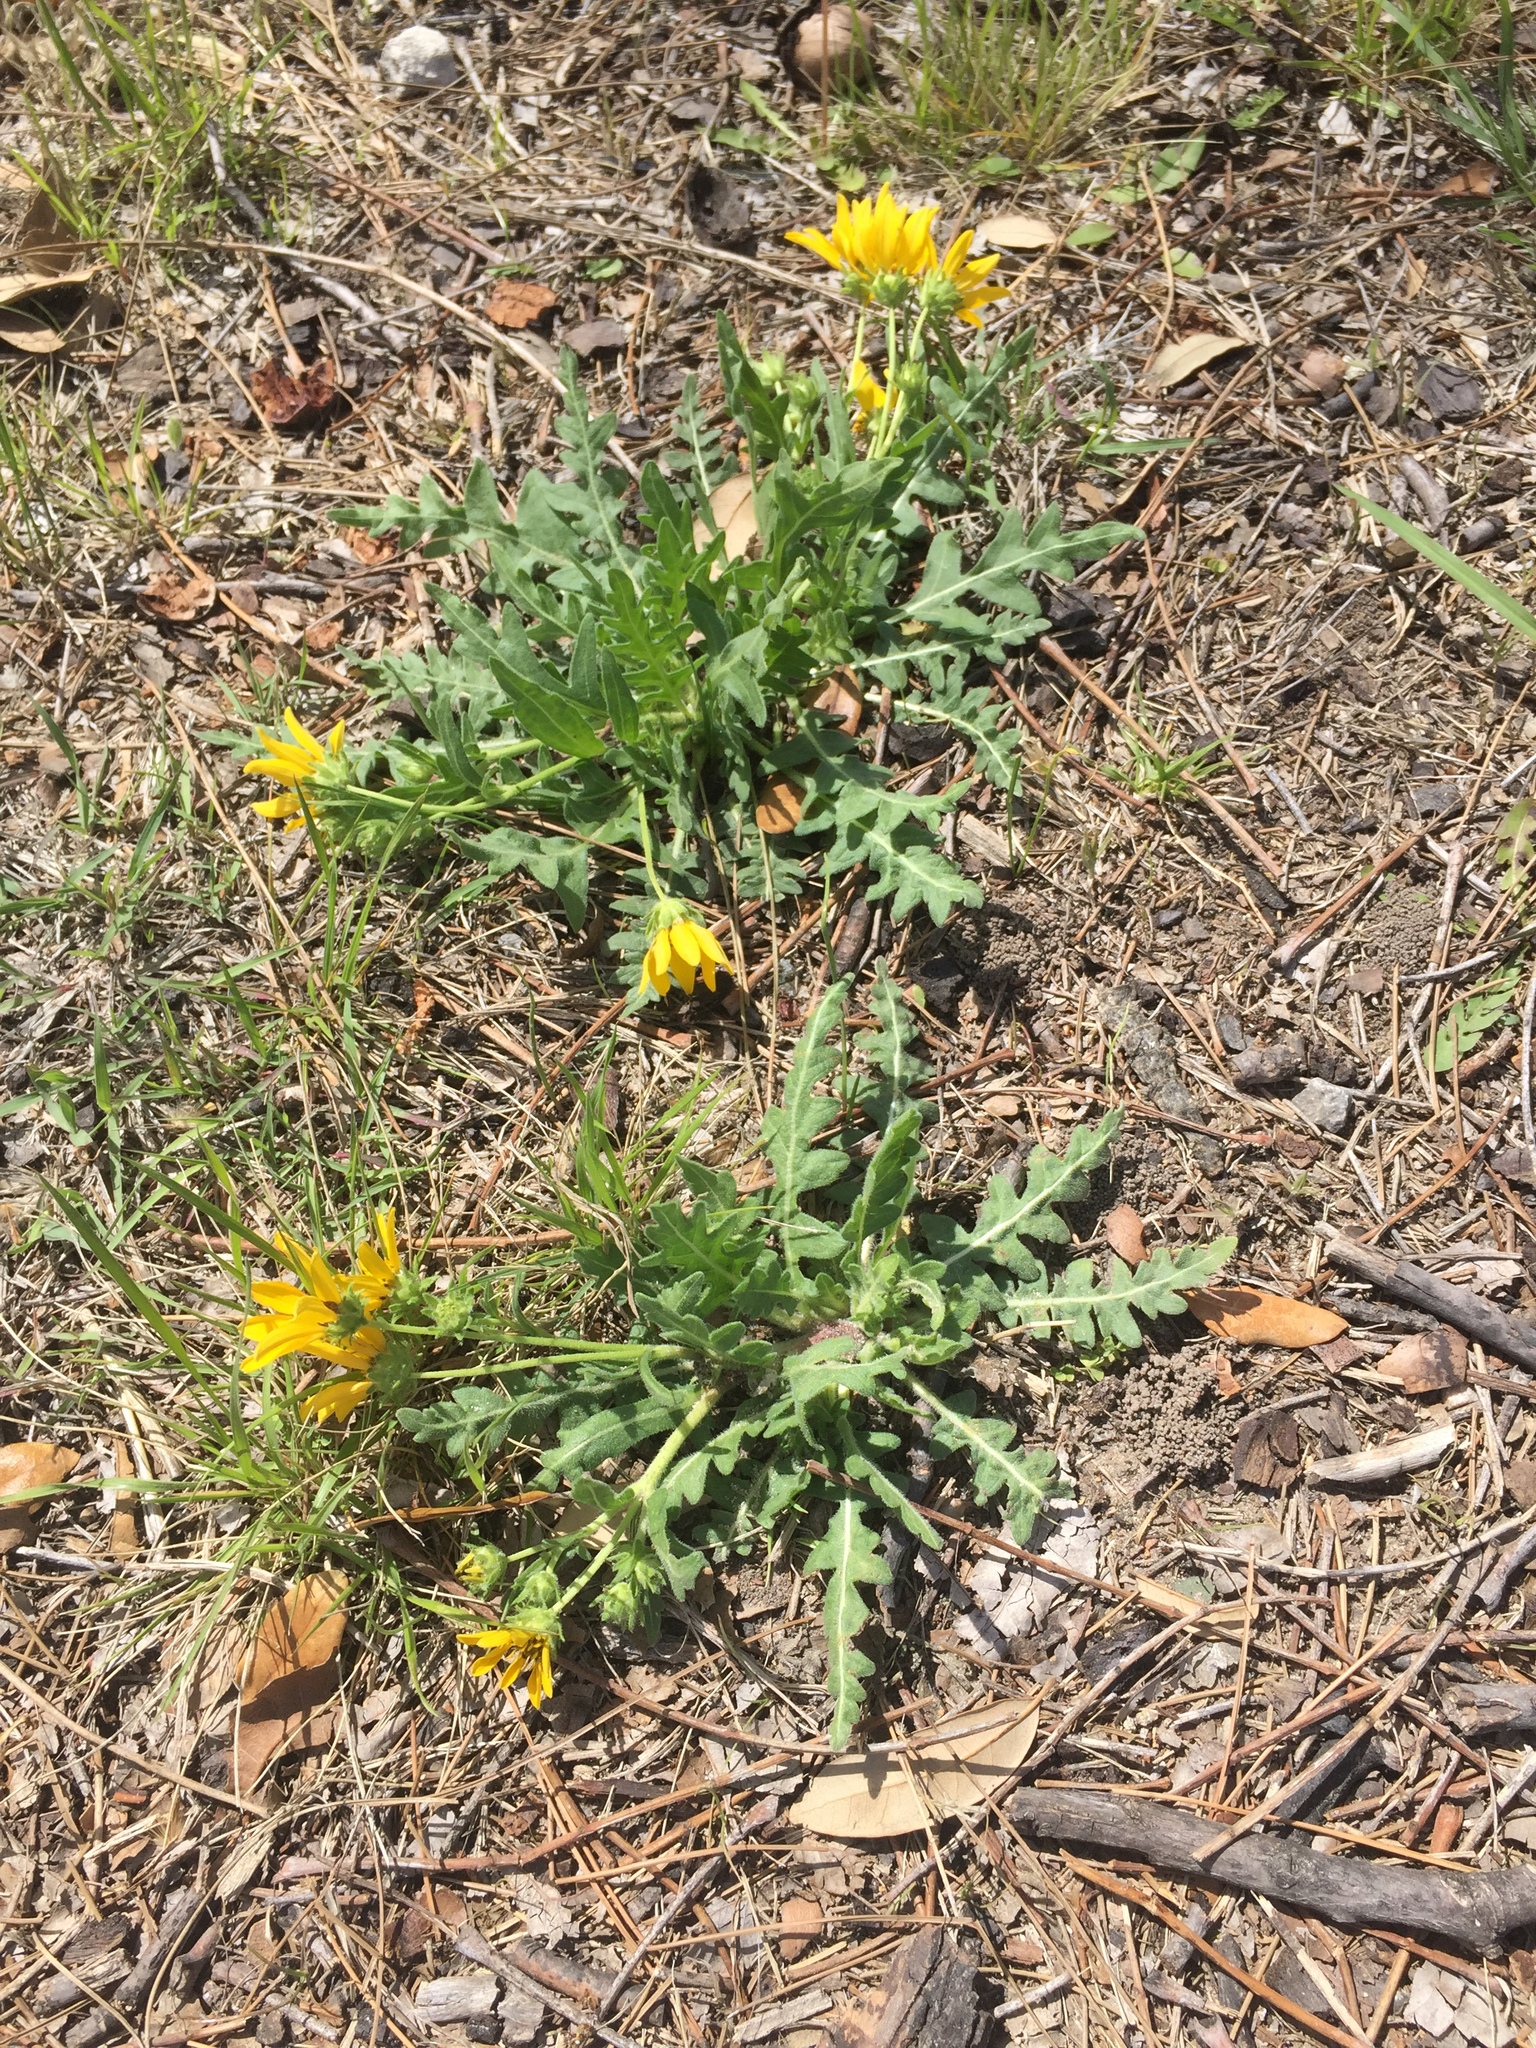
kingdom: Plantae
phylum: Tracheophyta
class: Magnoliopsida
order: Asterales
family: Asteraceae
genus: Engelmannia
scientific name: Engelmannia peristenia
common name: Engelmann's daisy
